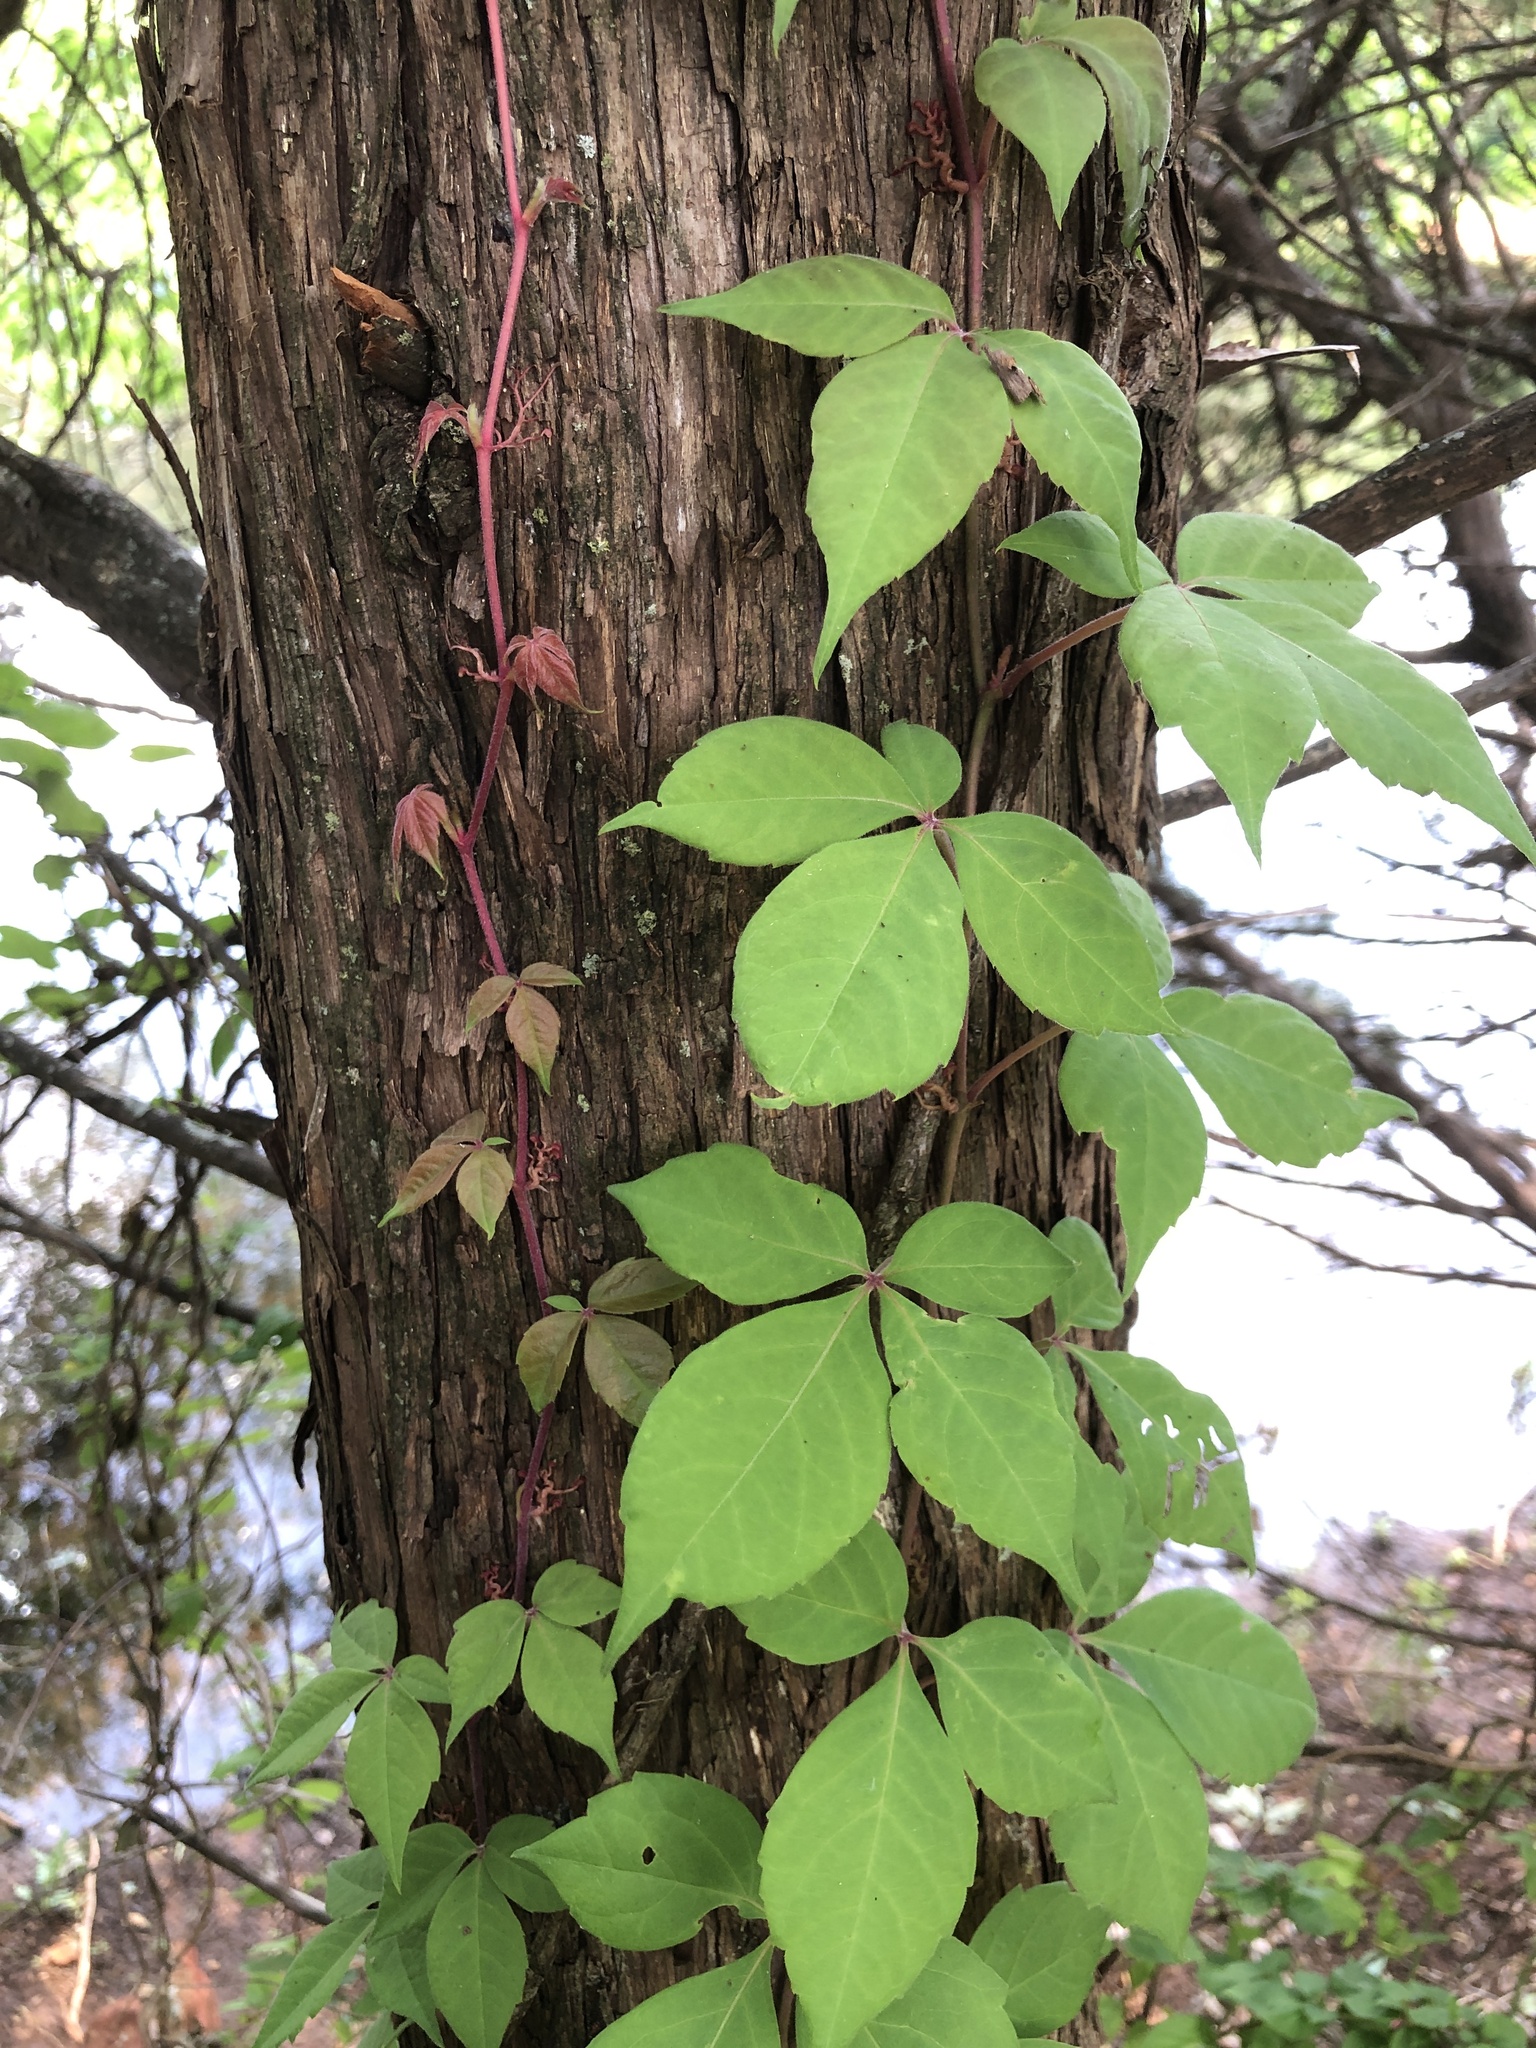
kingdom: Plantae
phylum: Tracheophyta
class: Magnoliopsida
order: Vitales
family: Vitaceae
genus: Parthenocissus
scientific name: Parthenocissus quinquefolia
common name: Virginia-creeper
